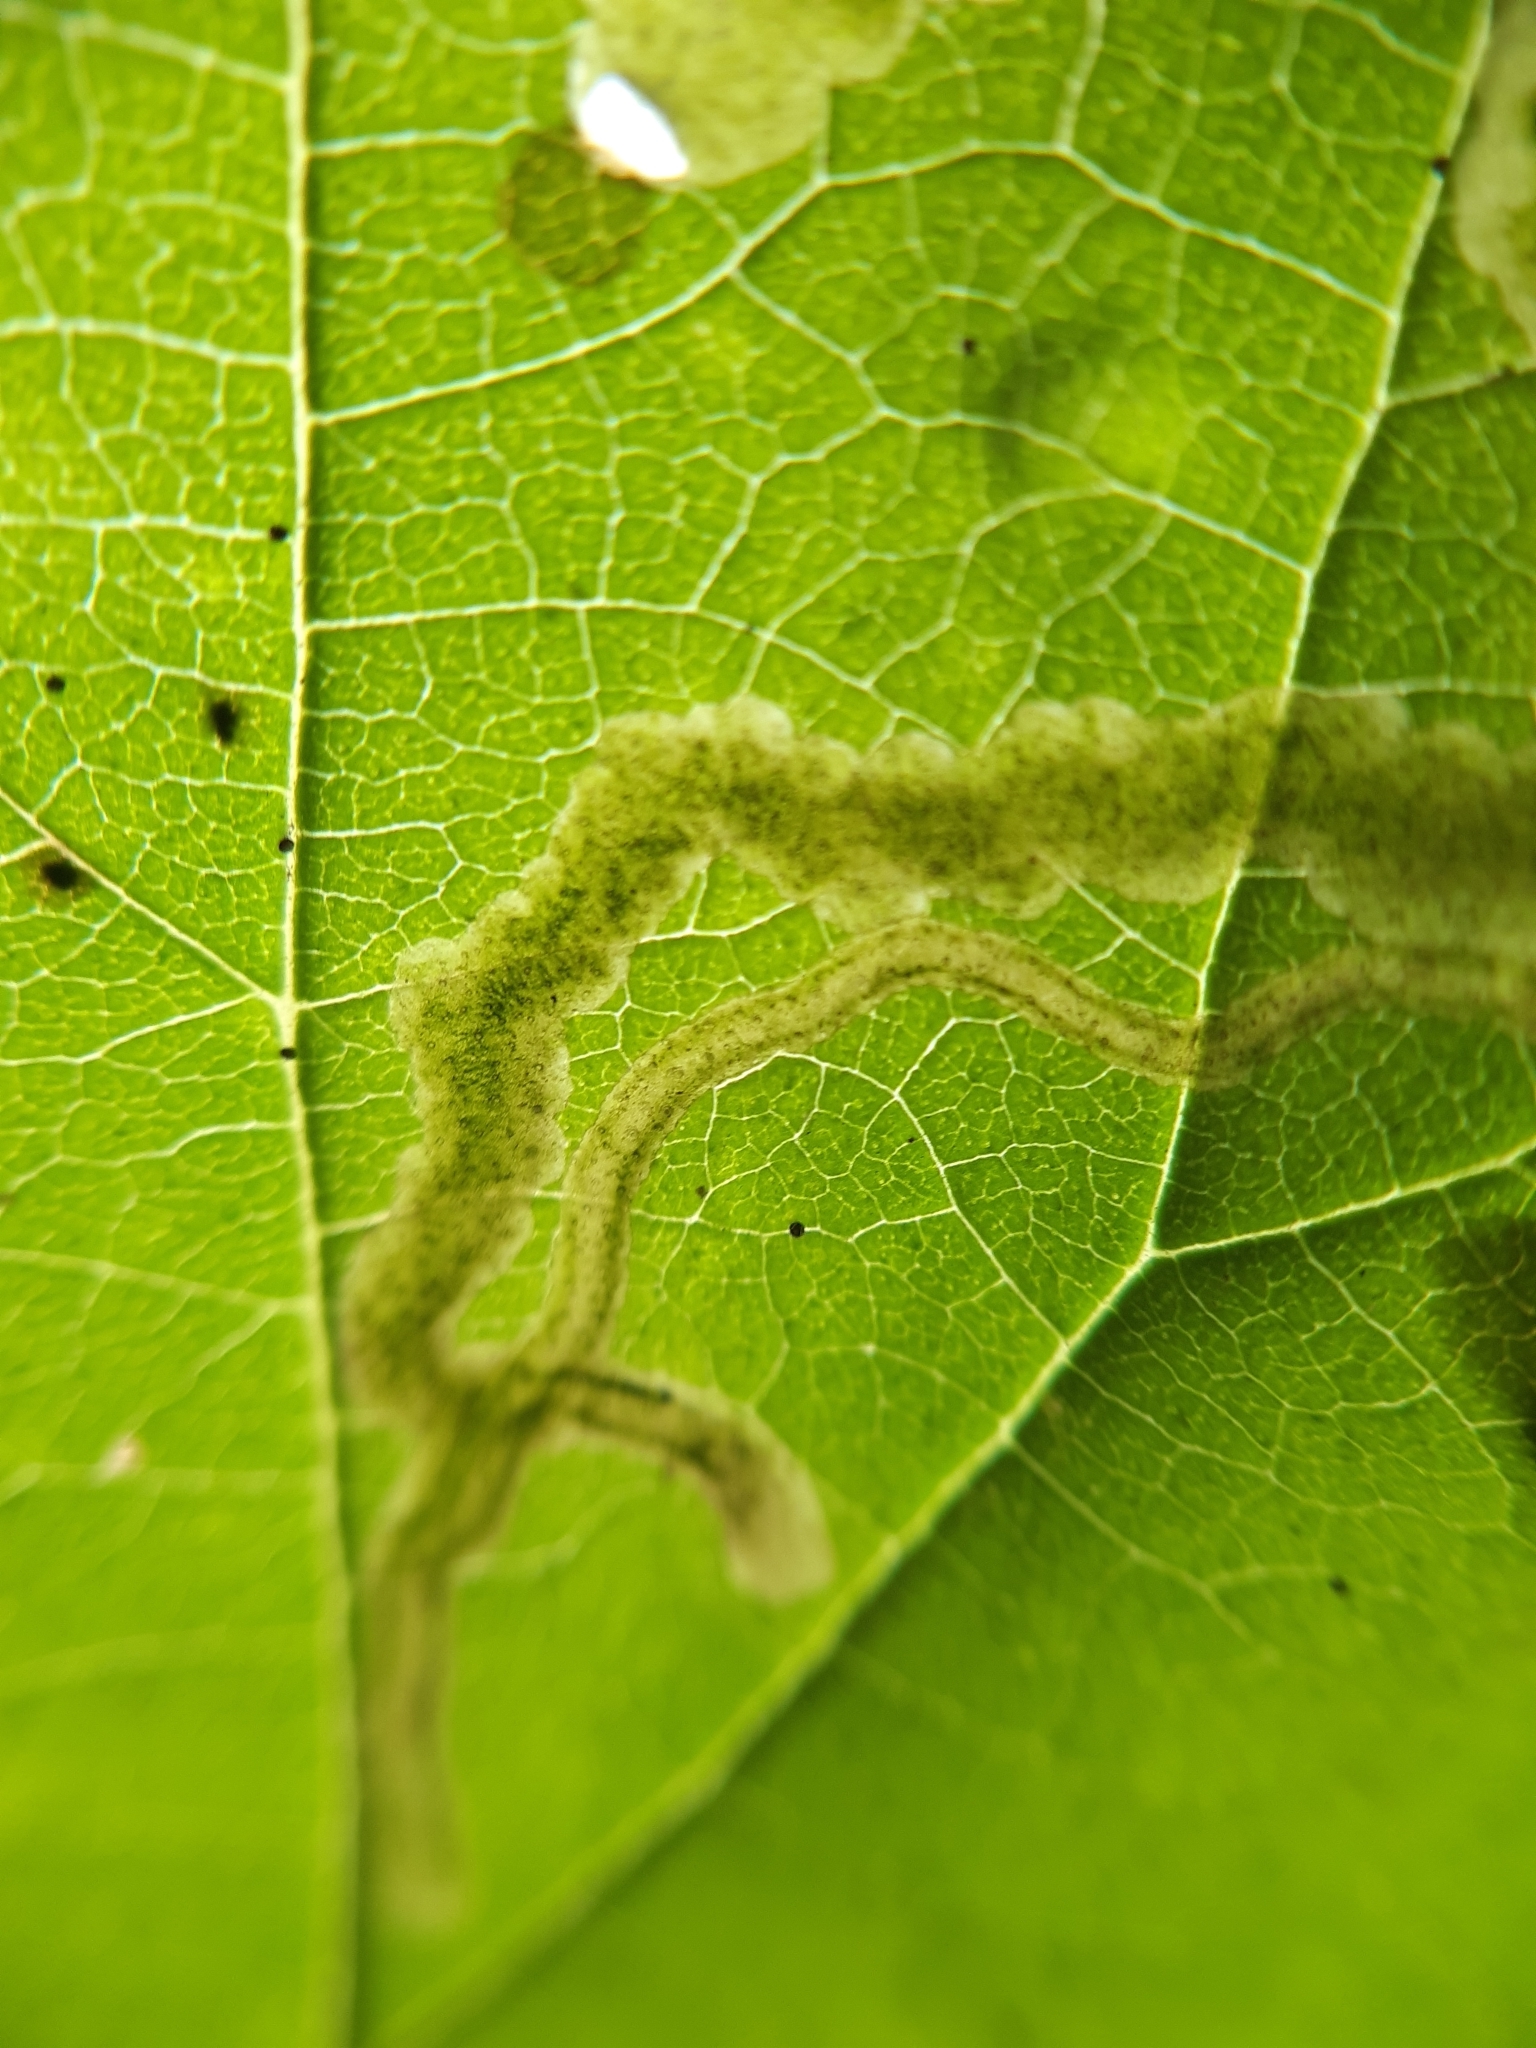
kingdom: Animalia
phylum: Arthropoda
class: Insecta
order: Diptera
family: Agromyzidae
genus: Agromyza
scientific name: Agromyza flaviceps
